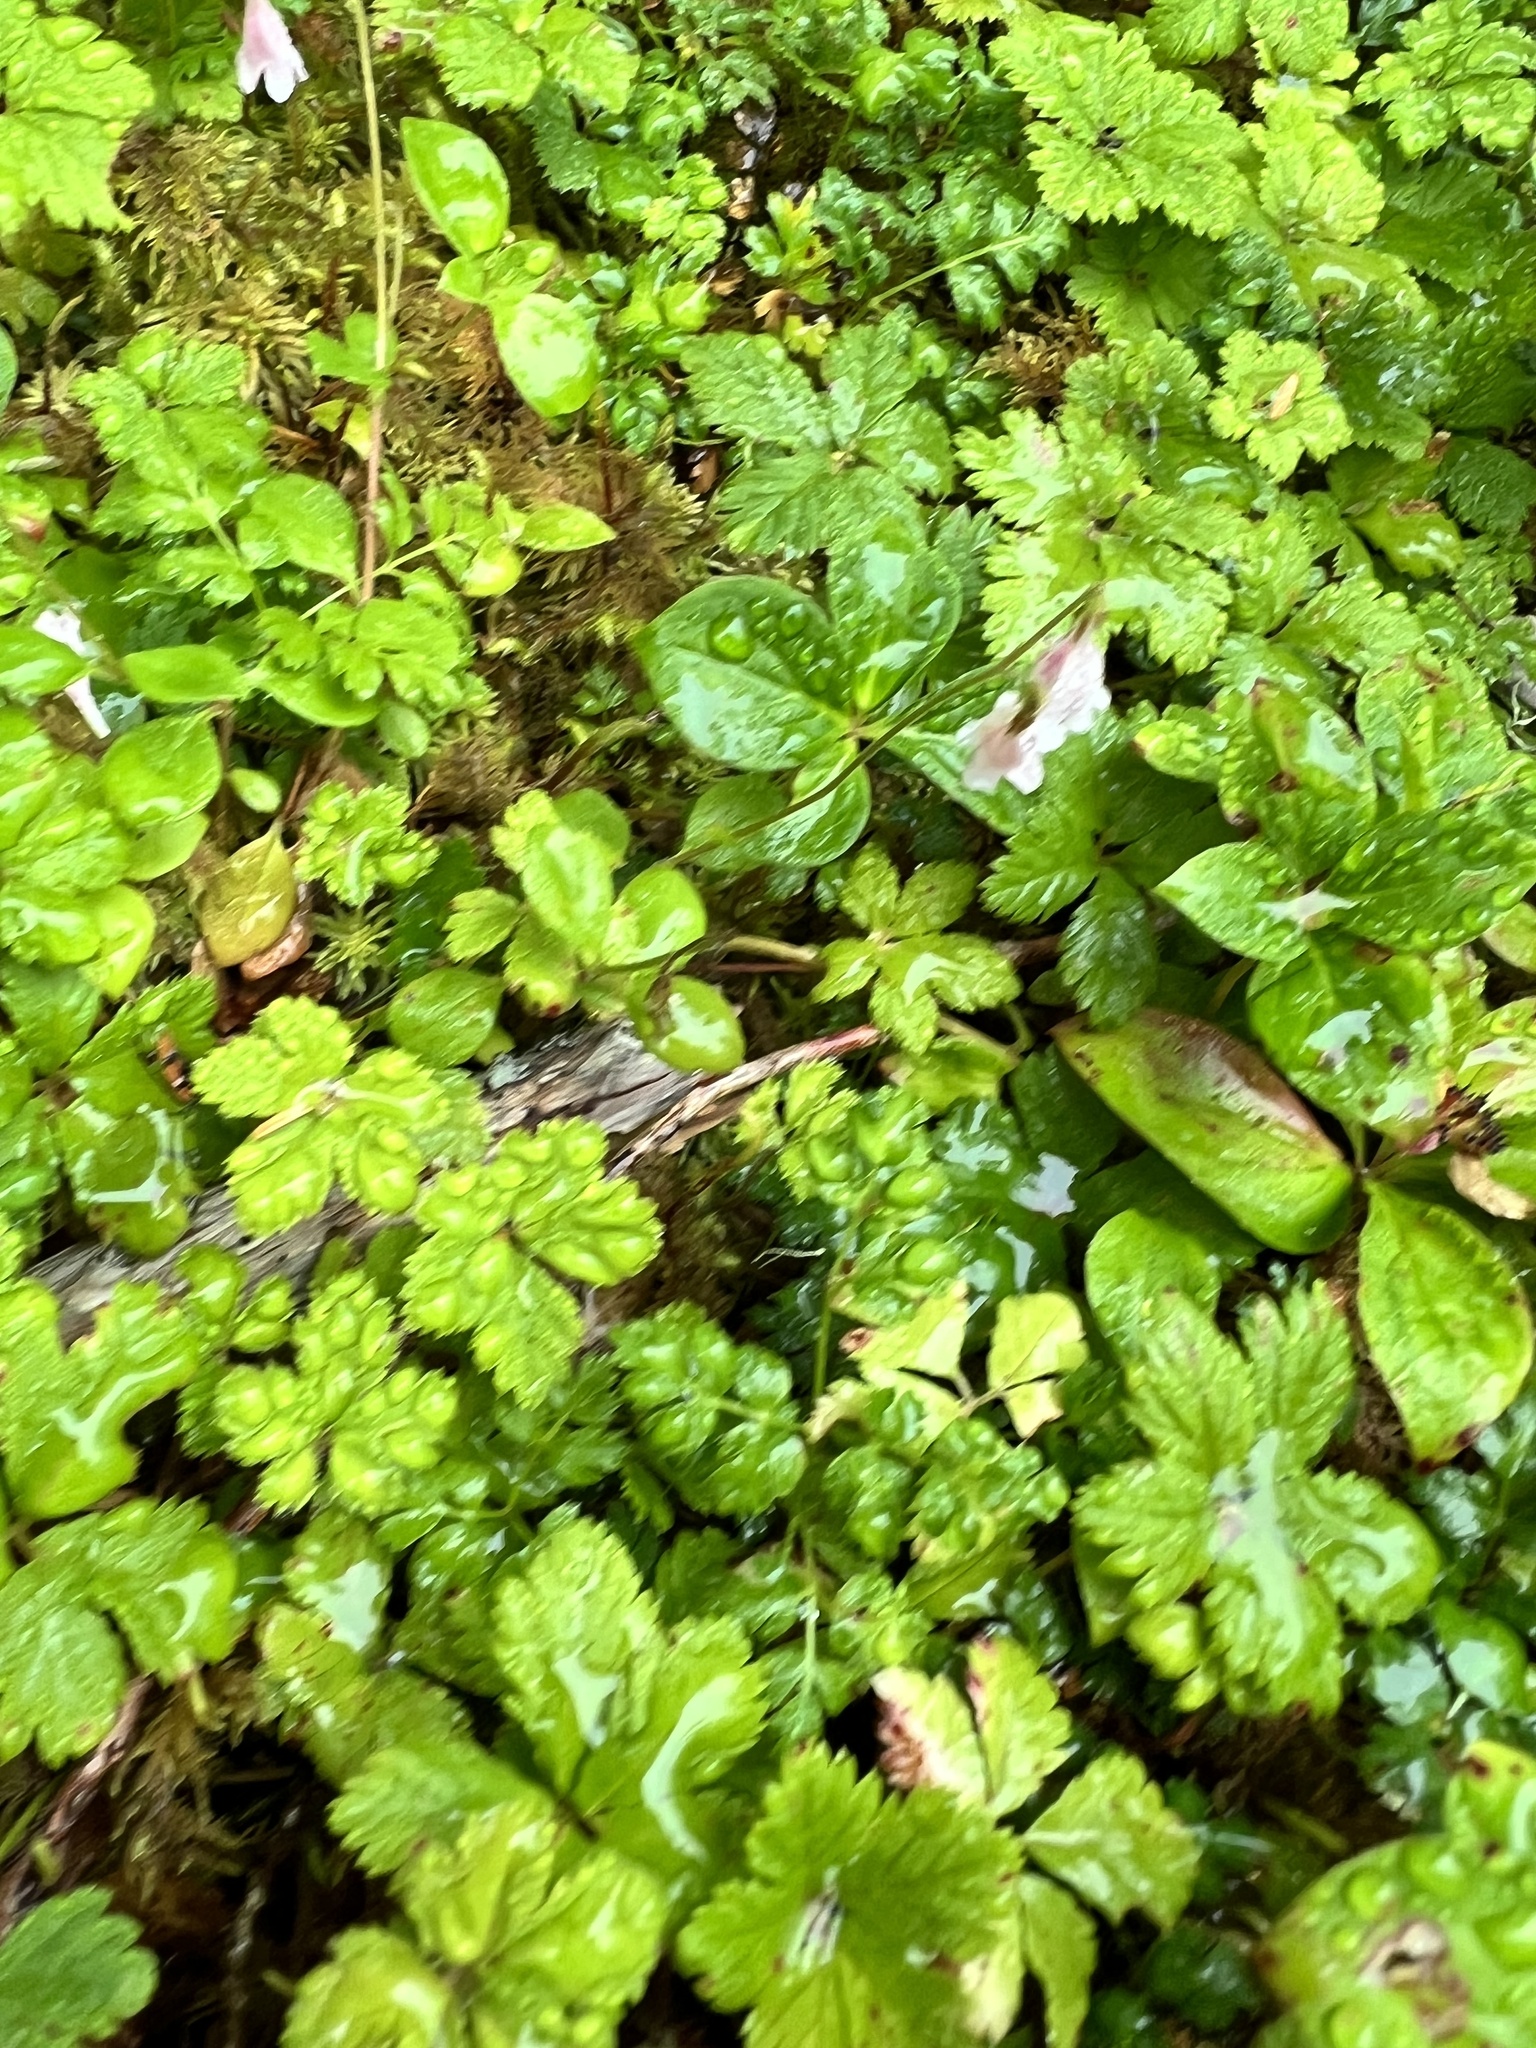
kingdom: Plantae
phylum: Tracheophyta
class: Magnoliopsida
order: Dipsacales
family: Caprifoliaceae
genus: Linnaea
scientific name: Linnaea borealis
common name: Twinflower
